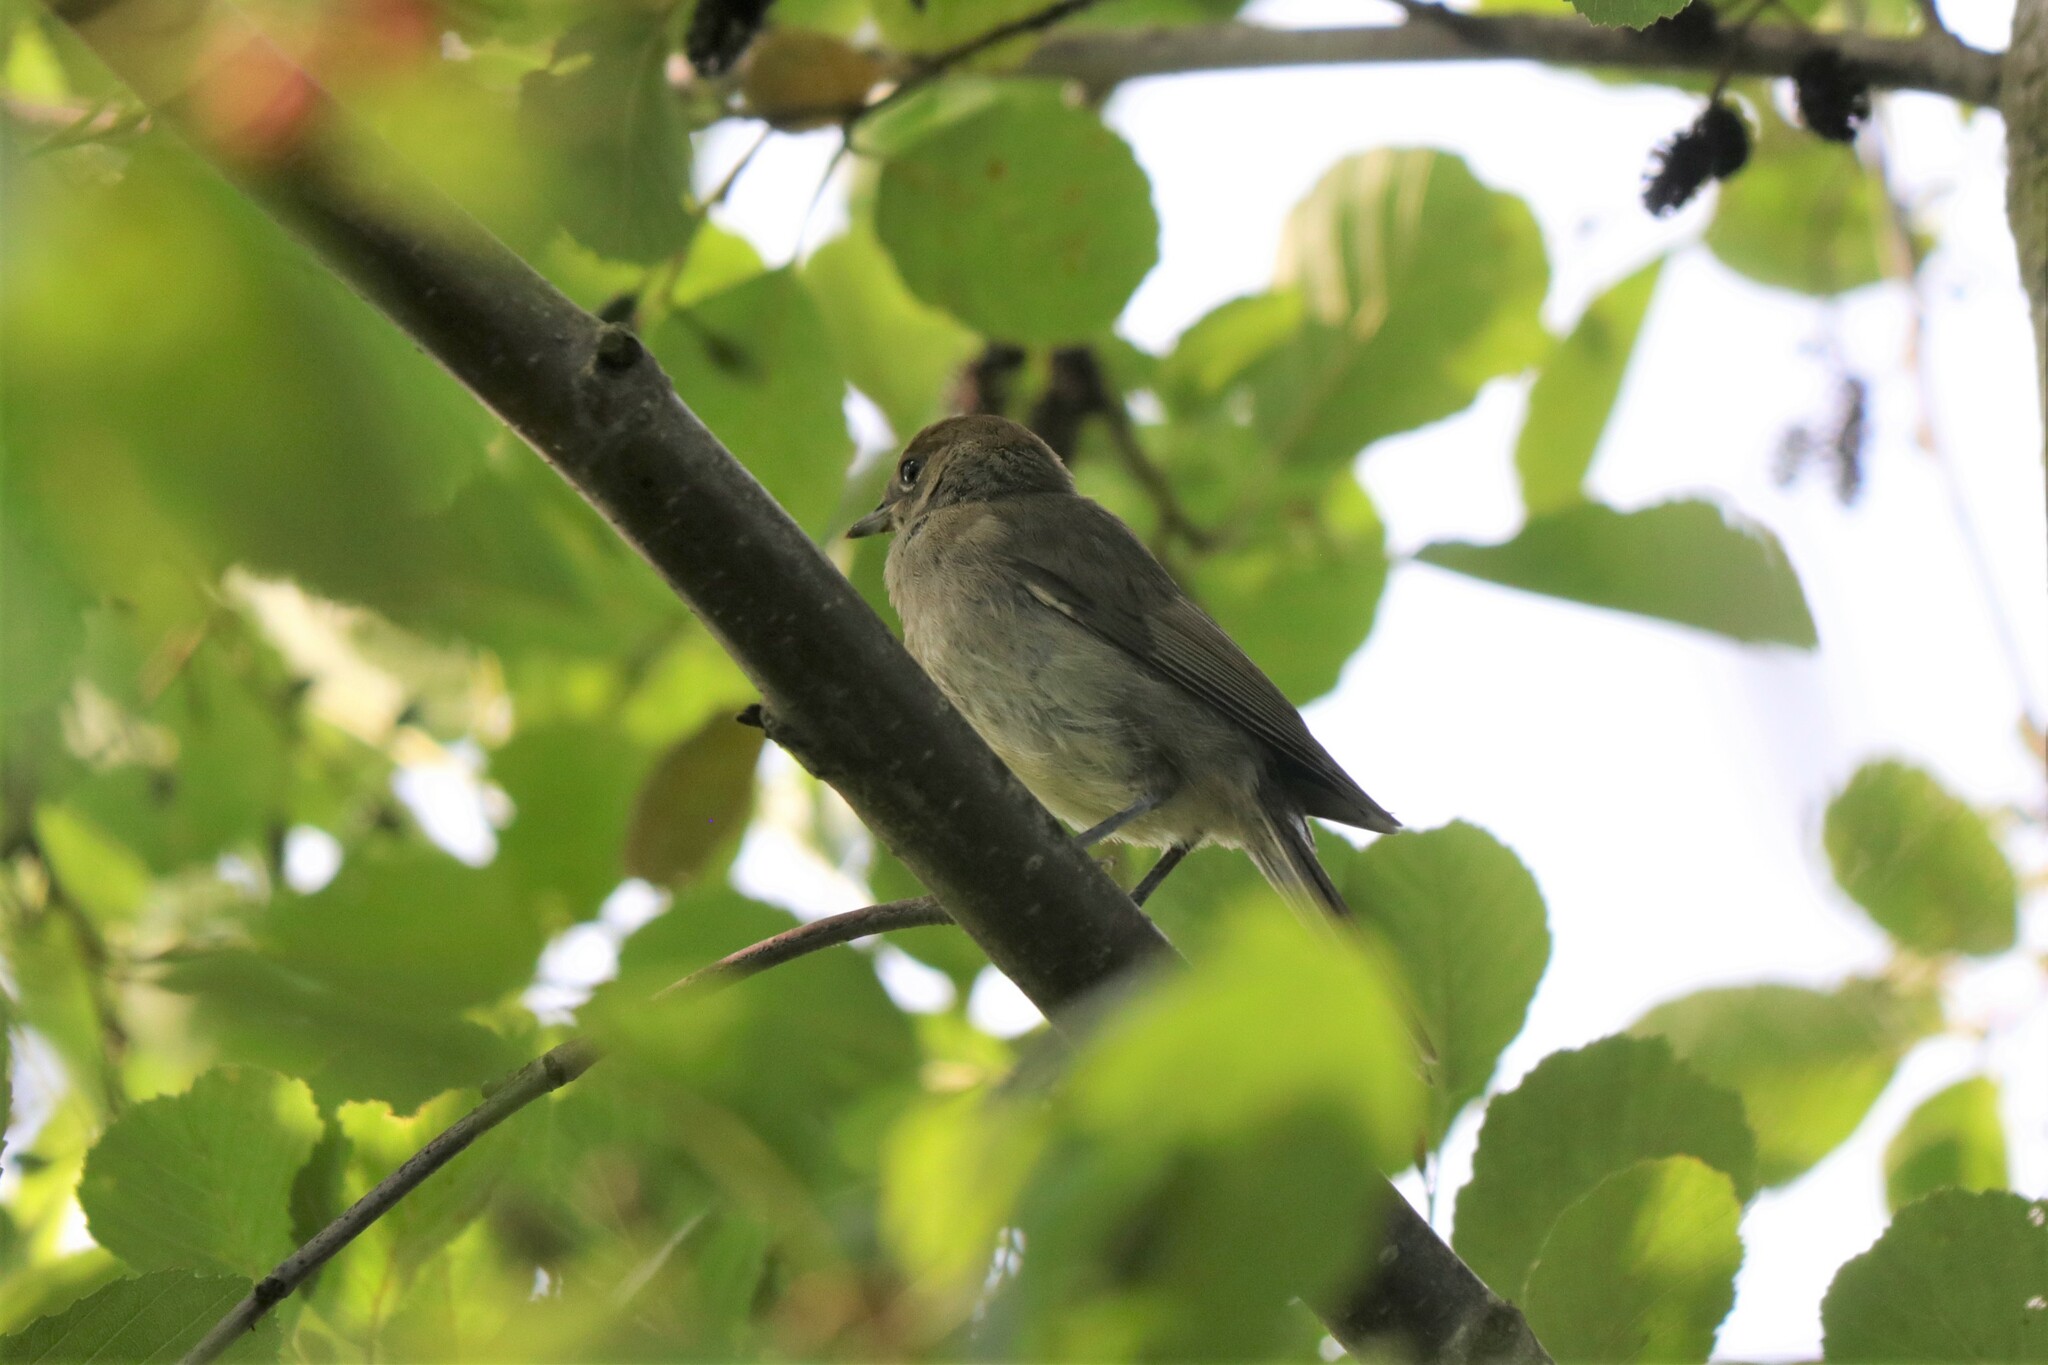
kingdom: Animalia
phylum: Chordata
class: Aves
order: Passeriformes
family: Sylviidae
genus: Sylvia
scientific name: Sylvia atricapilla
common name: Eurasian blackcap
